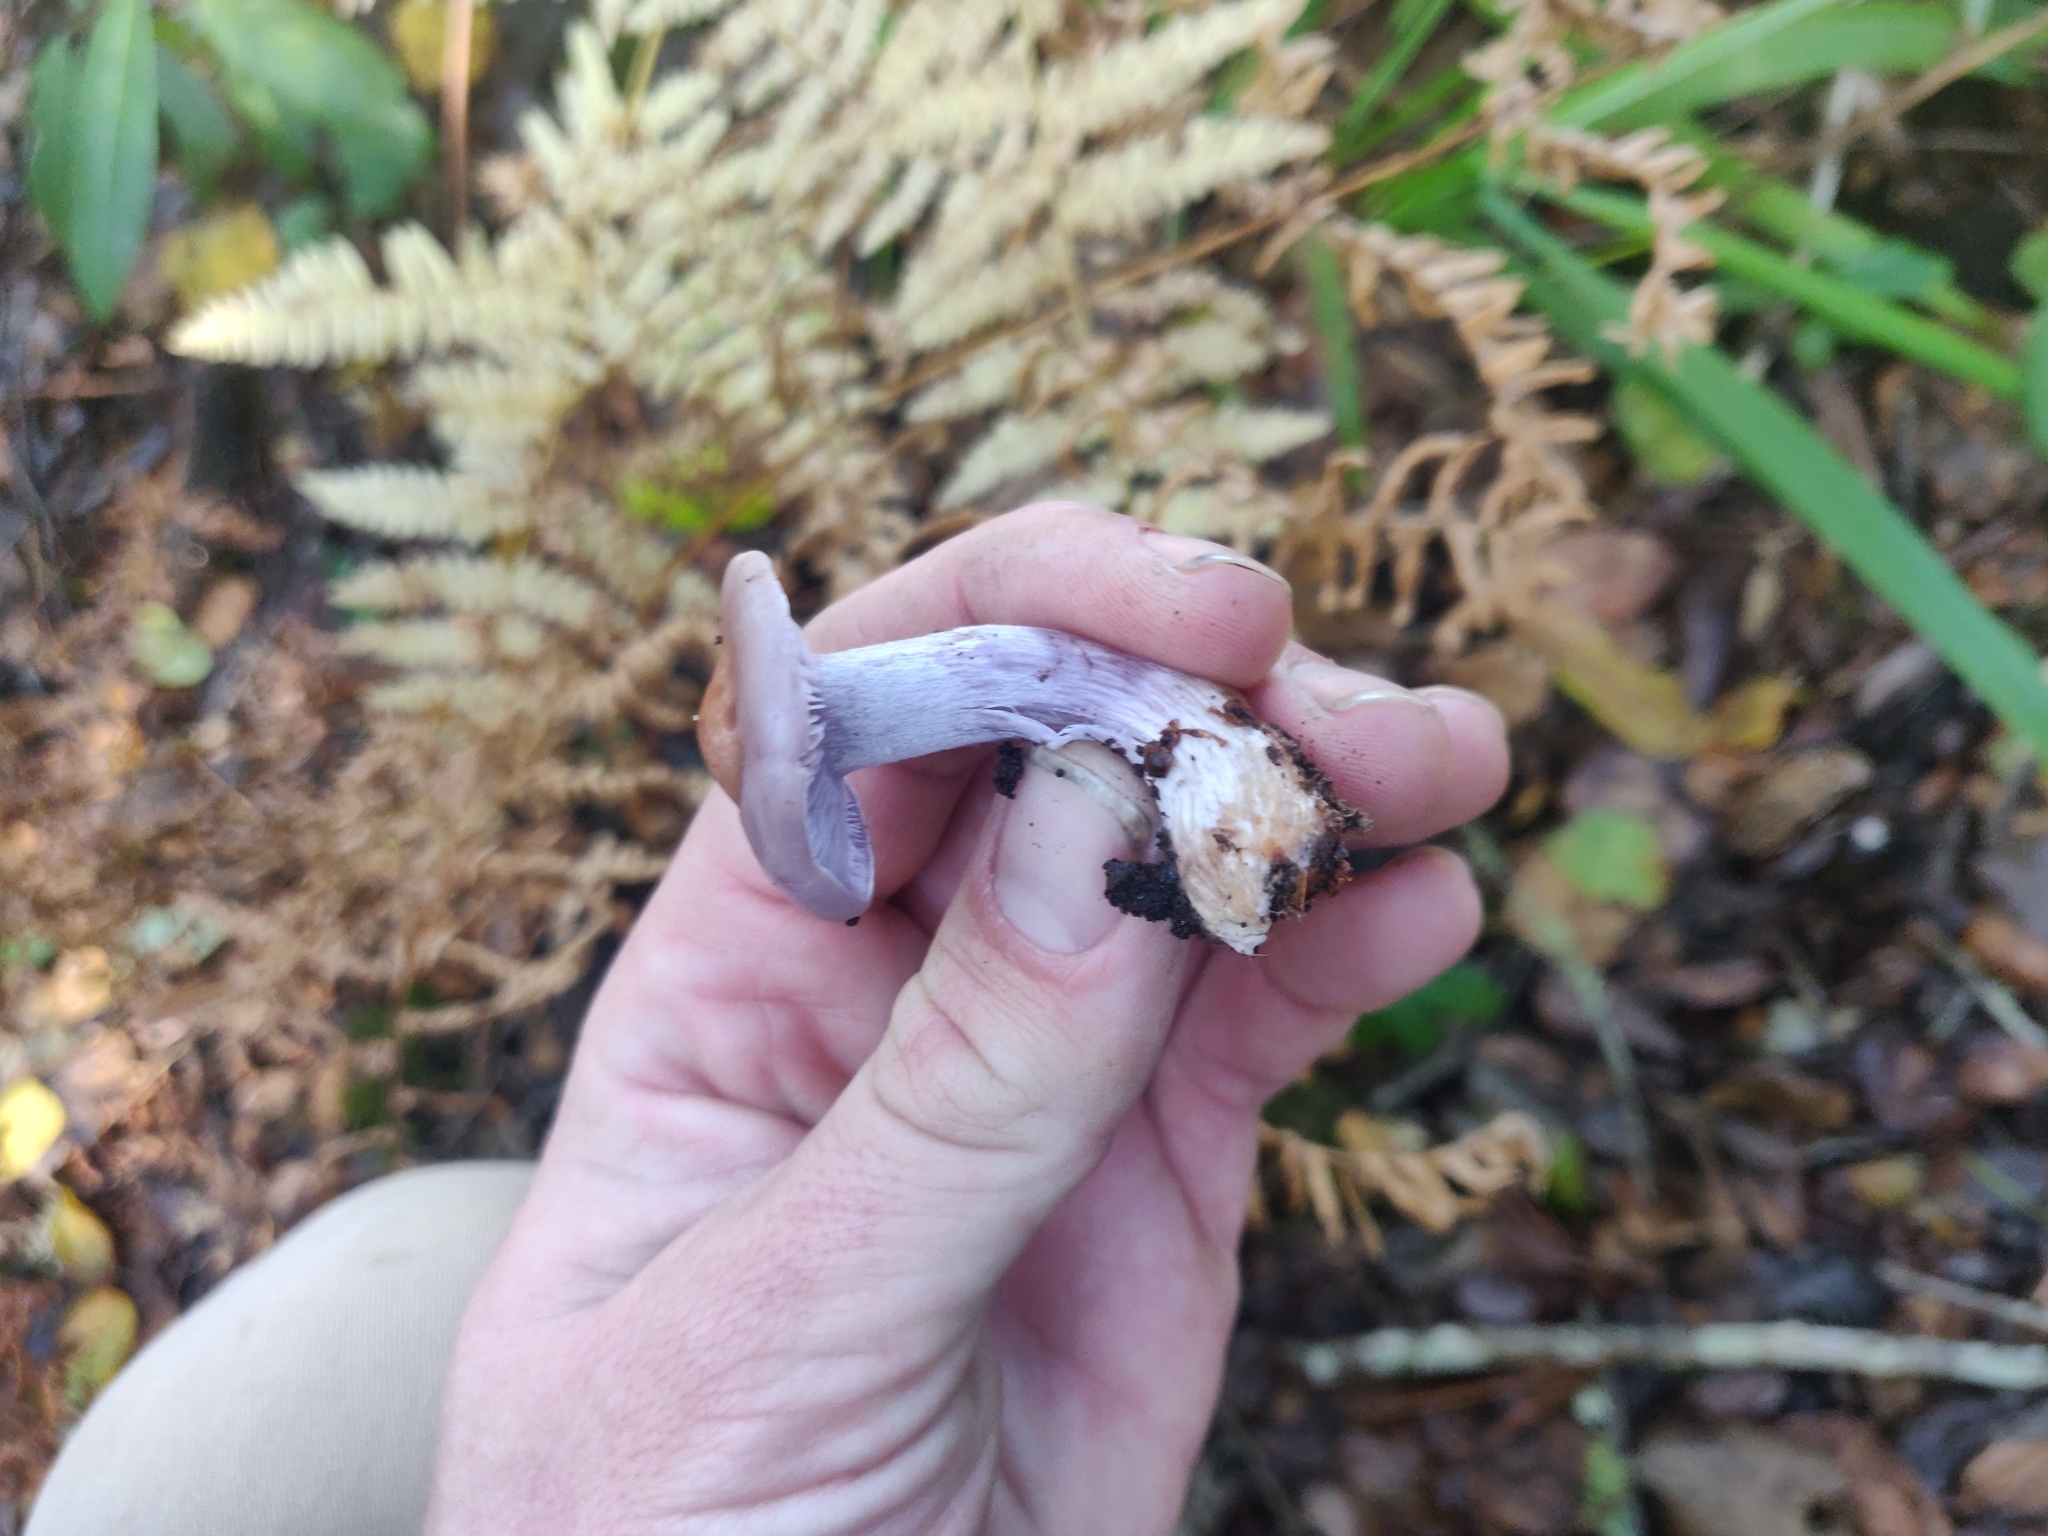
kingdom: Fungi
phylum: Basidiomycota
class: Agaricomycetes
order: Agaricales
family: Tricholomataceae
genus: Collybia
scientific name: Collybia
